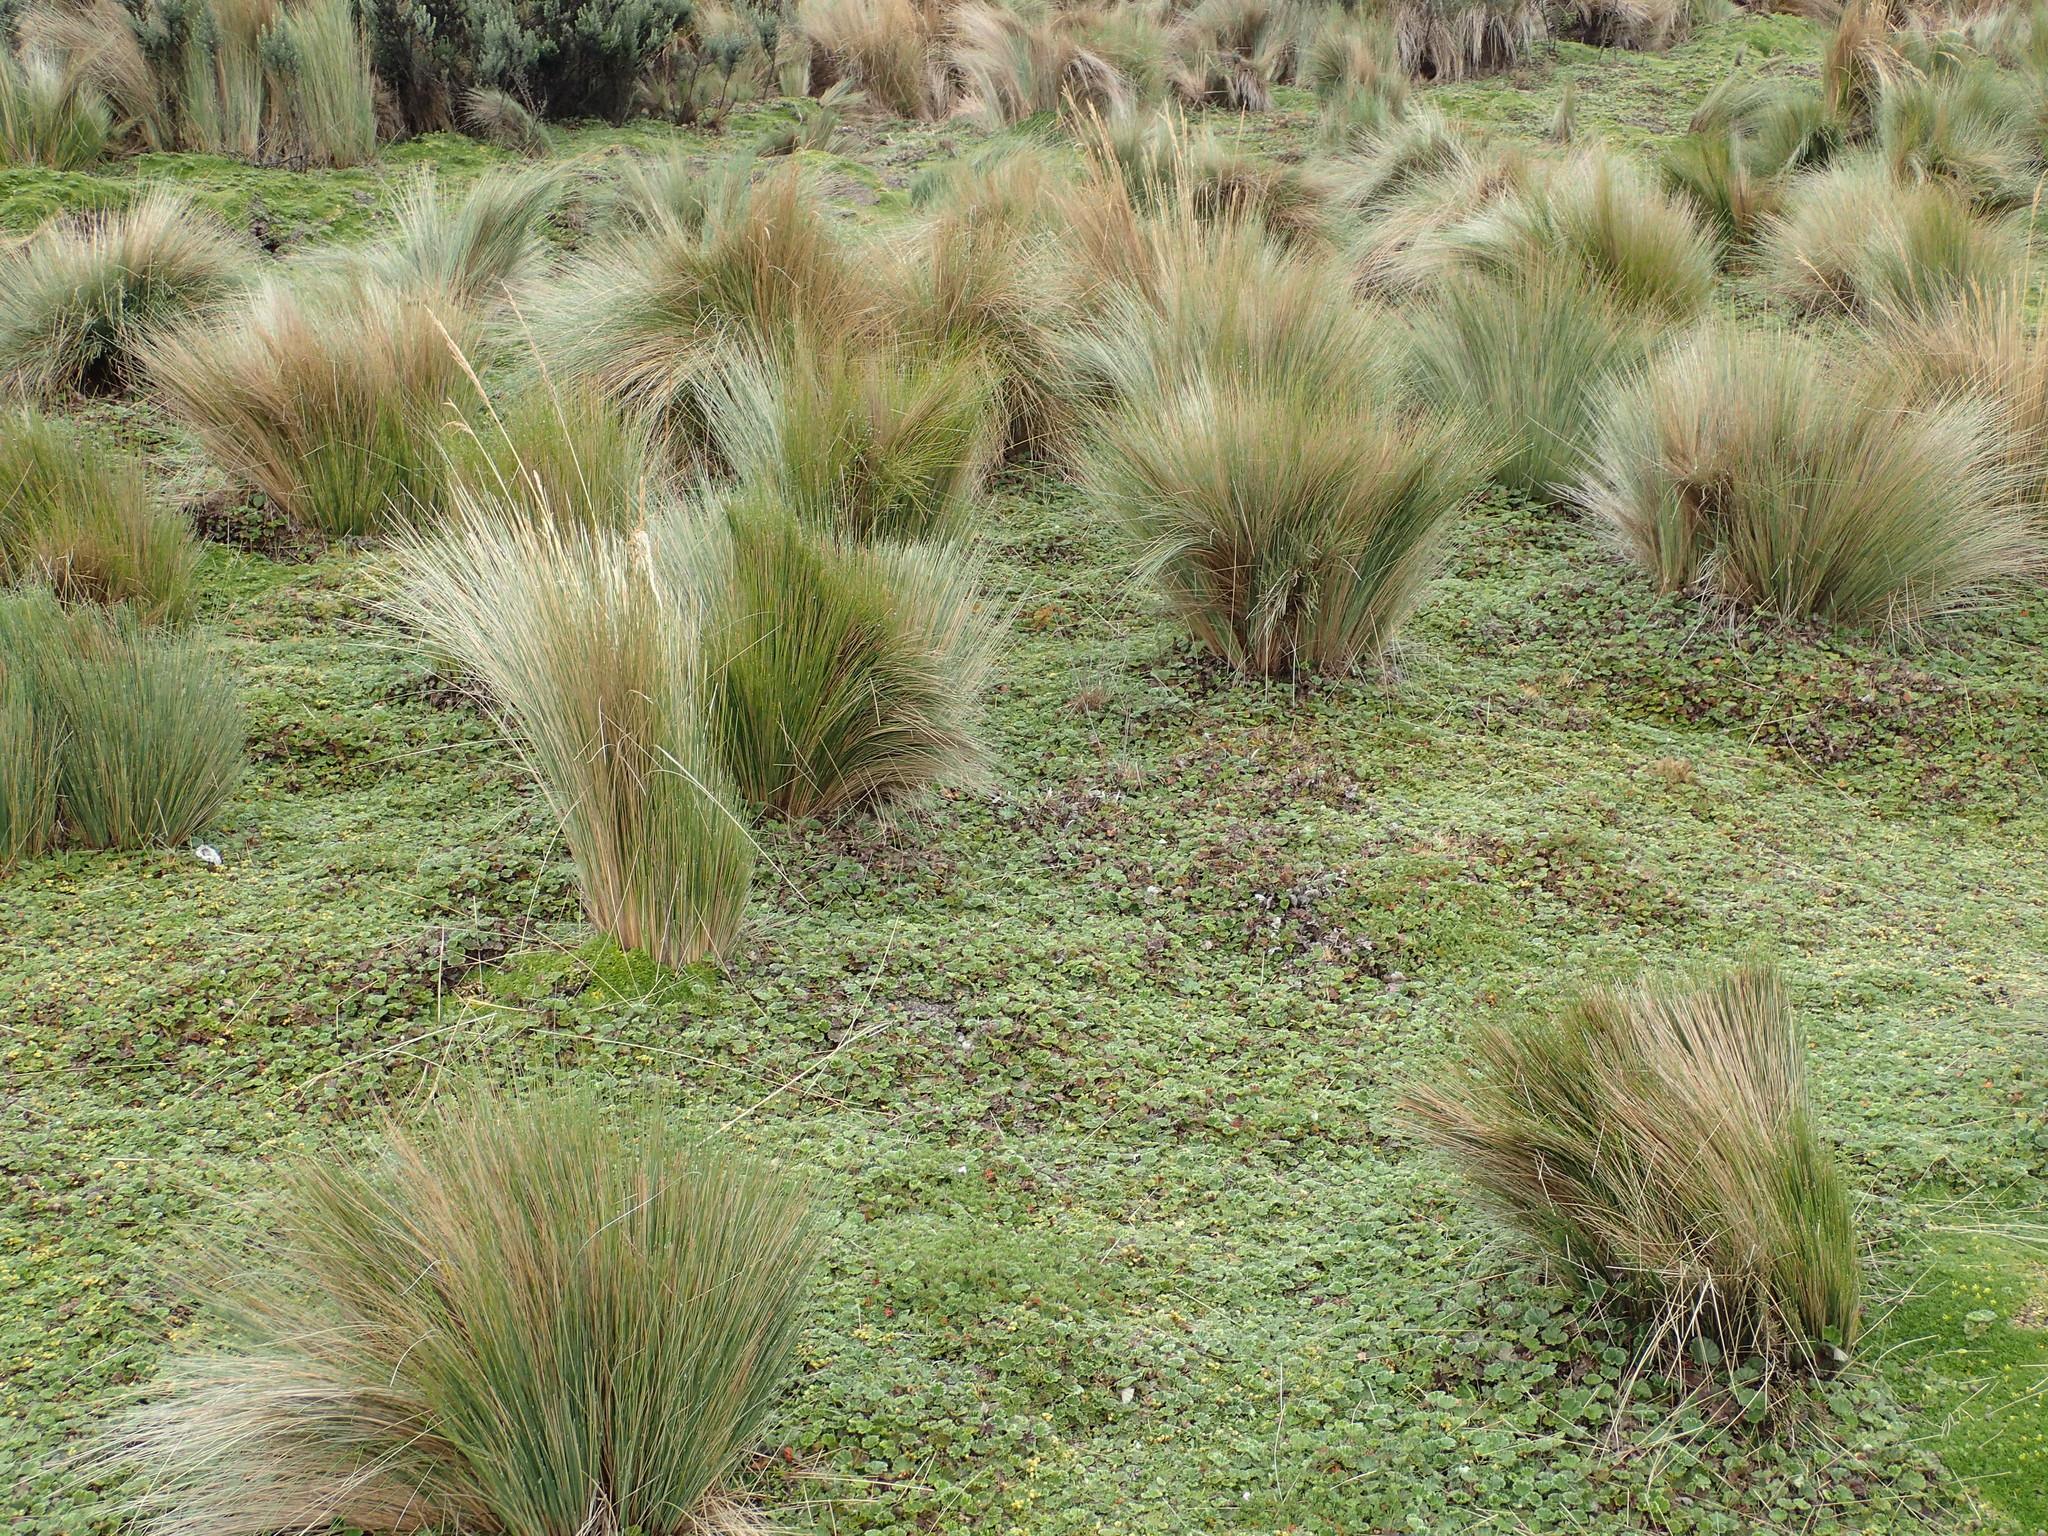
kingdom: Plantae
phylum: Tracheophyta
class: Liliopsida
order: Poales
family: Poaceae
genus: Jarava
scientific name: Jarava ichu
